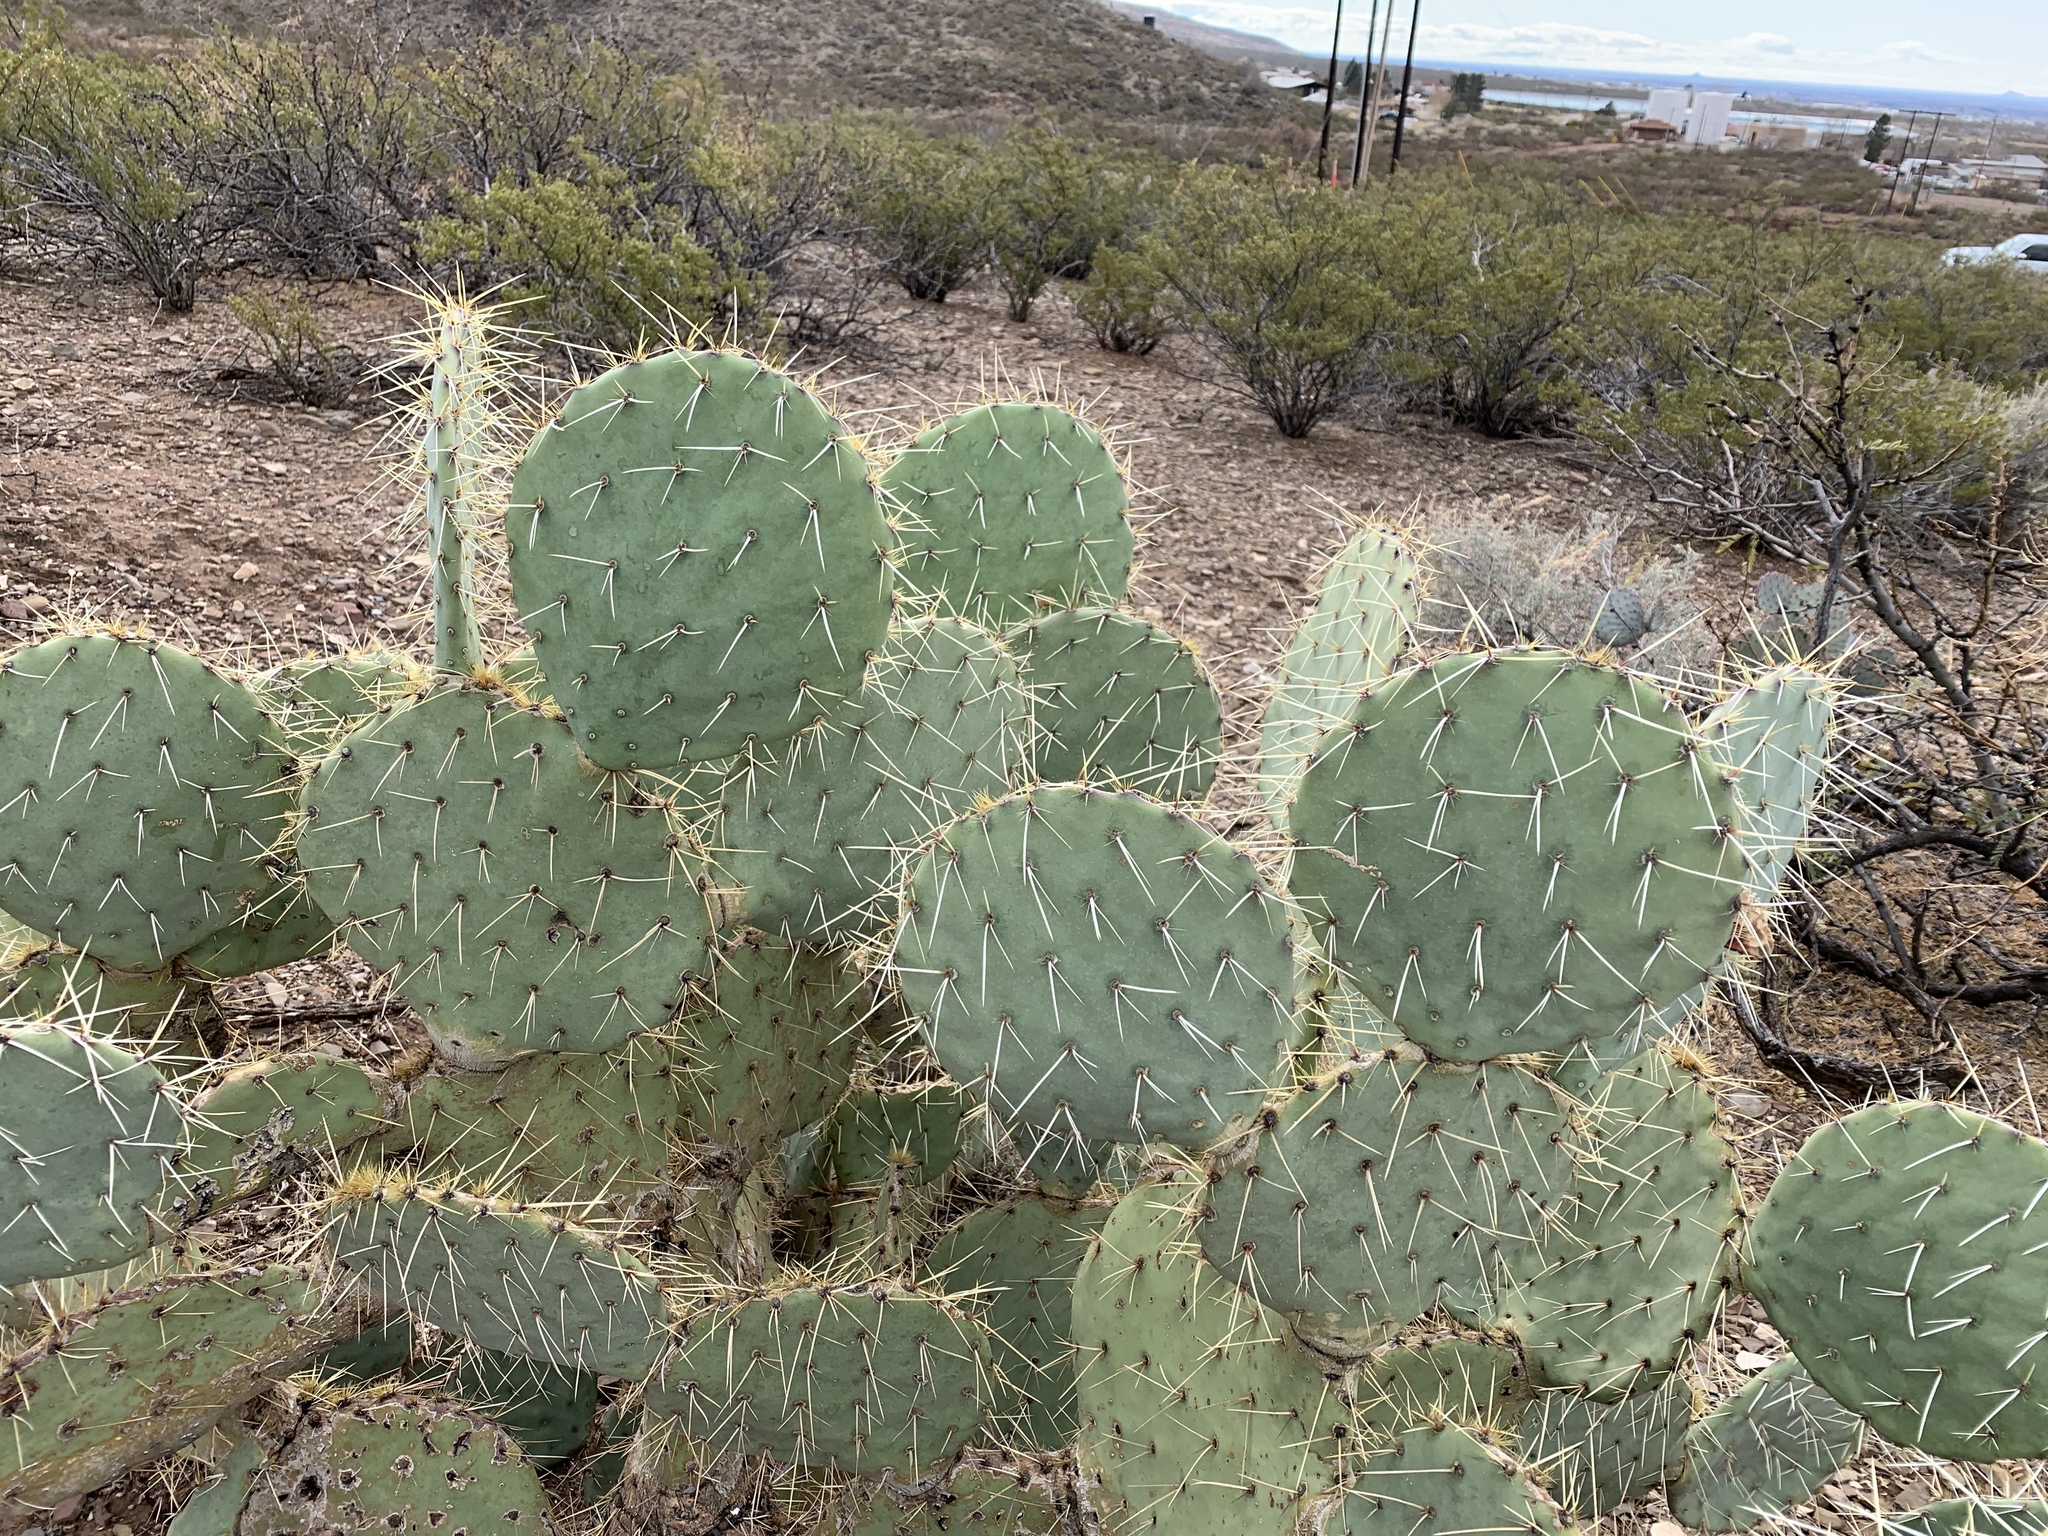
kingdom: Plantae
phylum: Tracheophyta
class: Magnoliopsida
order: Caryophyllales
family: Cactaceae
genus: Opuntia
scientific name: Opuntia orbiculata
